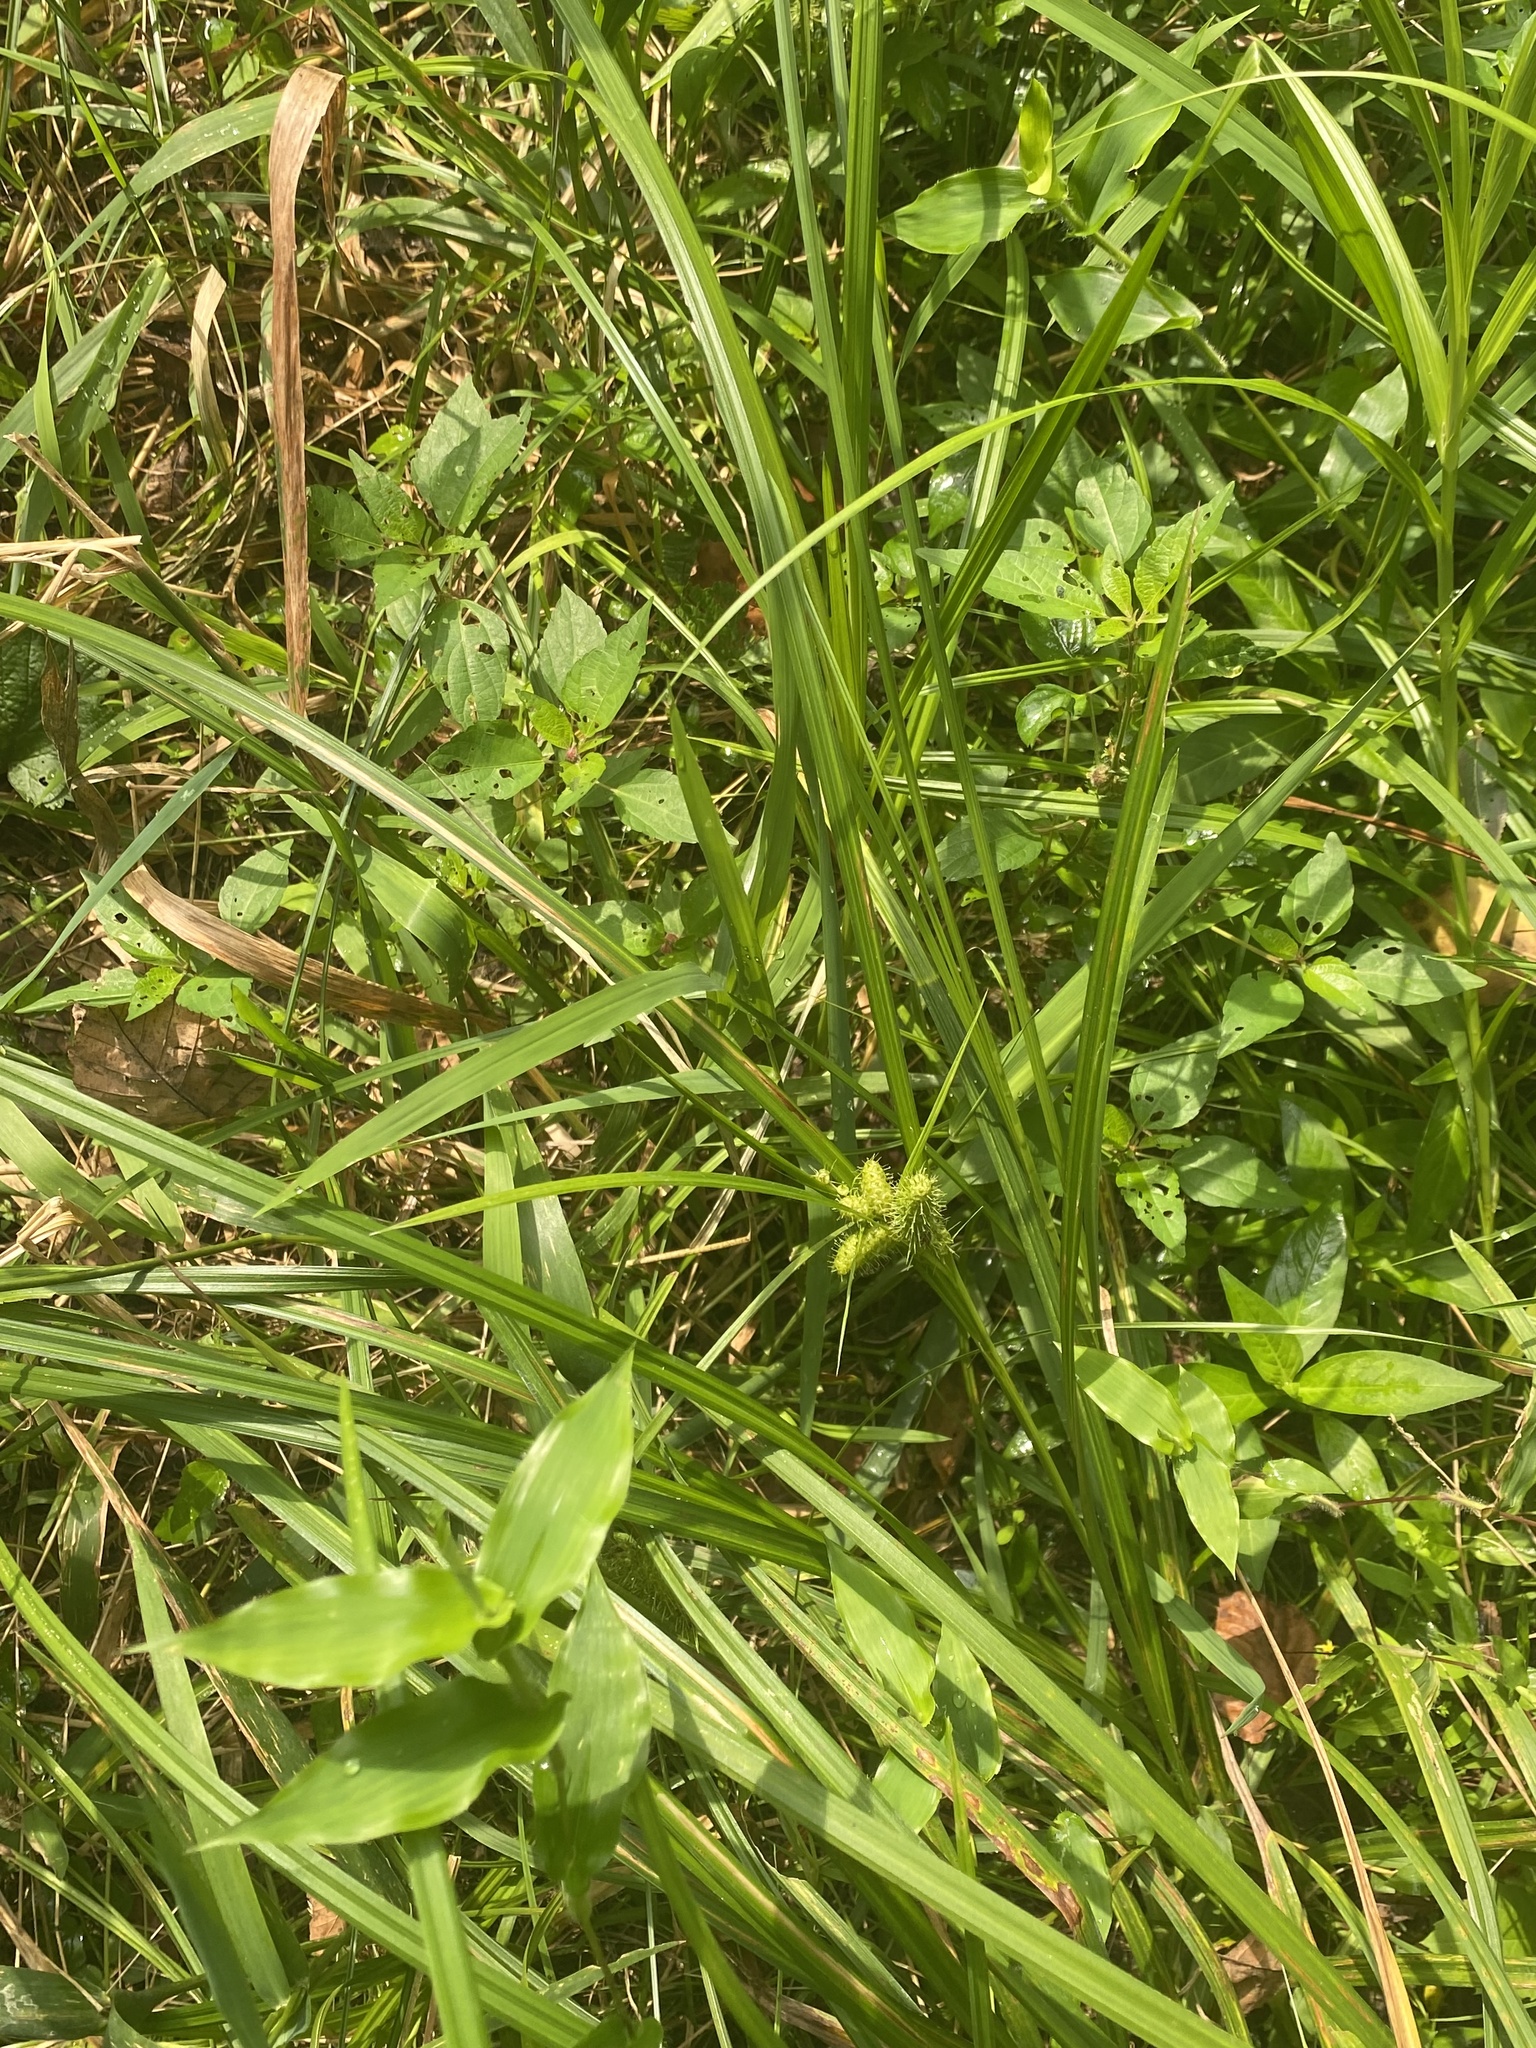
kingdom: Plantae
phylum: Tracheophyta
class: Liliopsida
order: Poales
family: Cyperaceae
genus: Carex
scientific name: Carex frankii
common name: Frank's sedge
